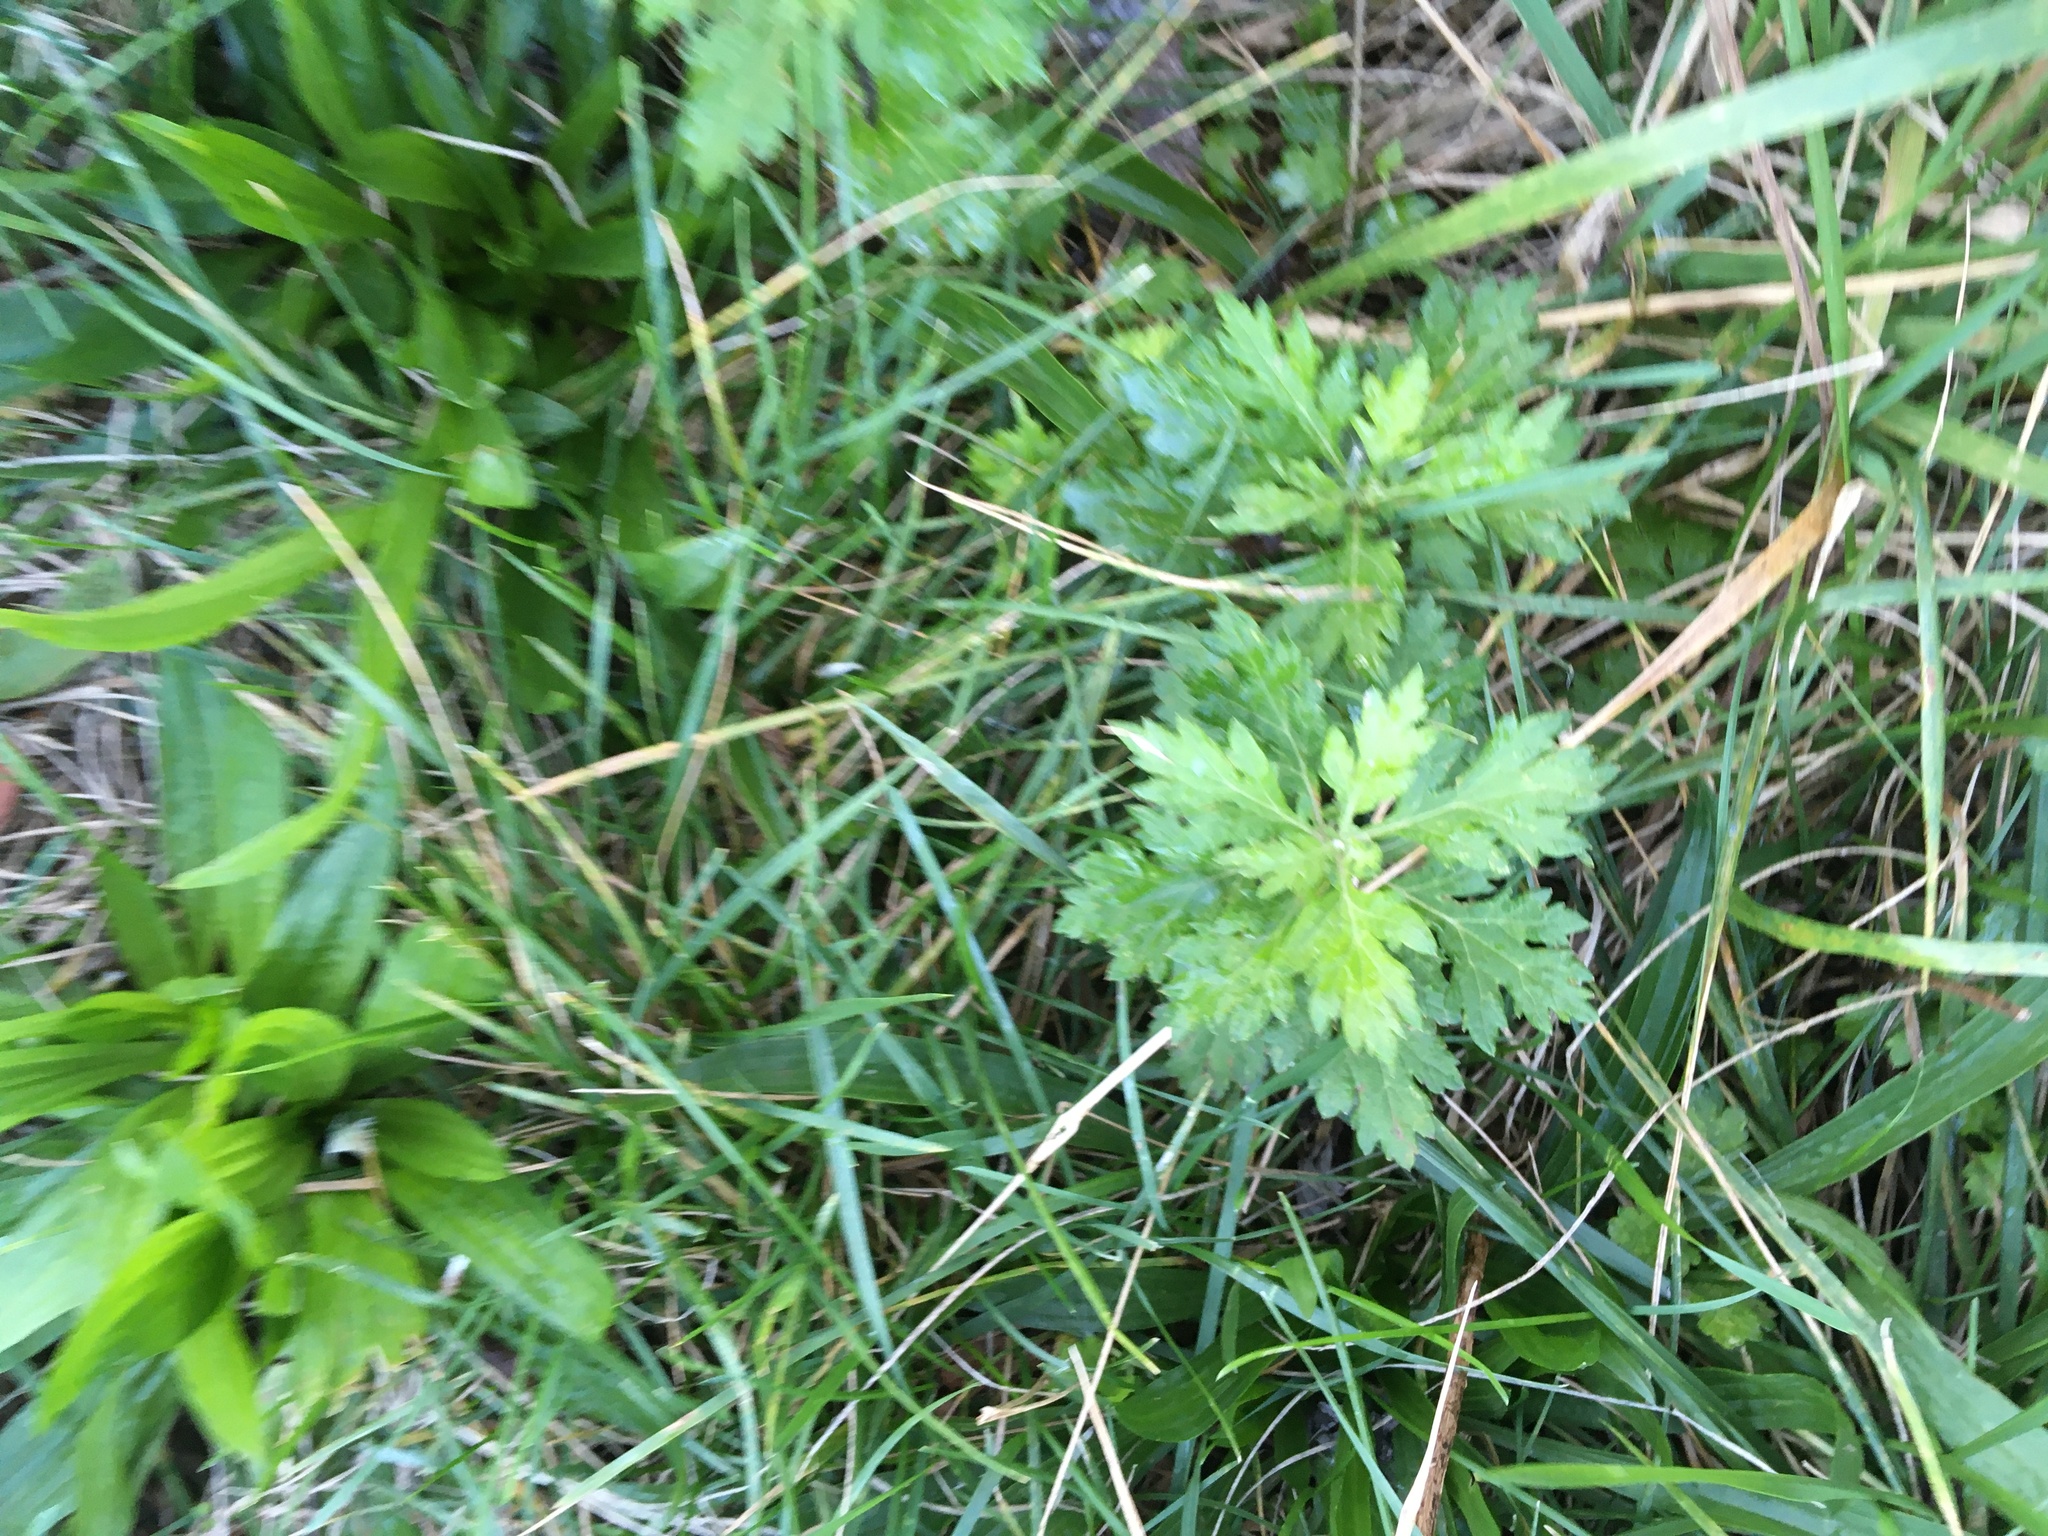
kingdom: Plantae
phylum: Tracheophyta
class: Magnoliopsida
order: Asterales
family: Asteraceae
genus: Artemisia
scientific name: Artemisia vulgaris
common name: Mugwort
